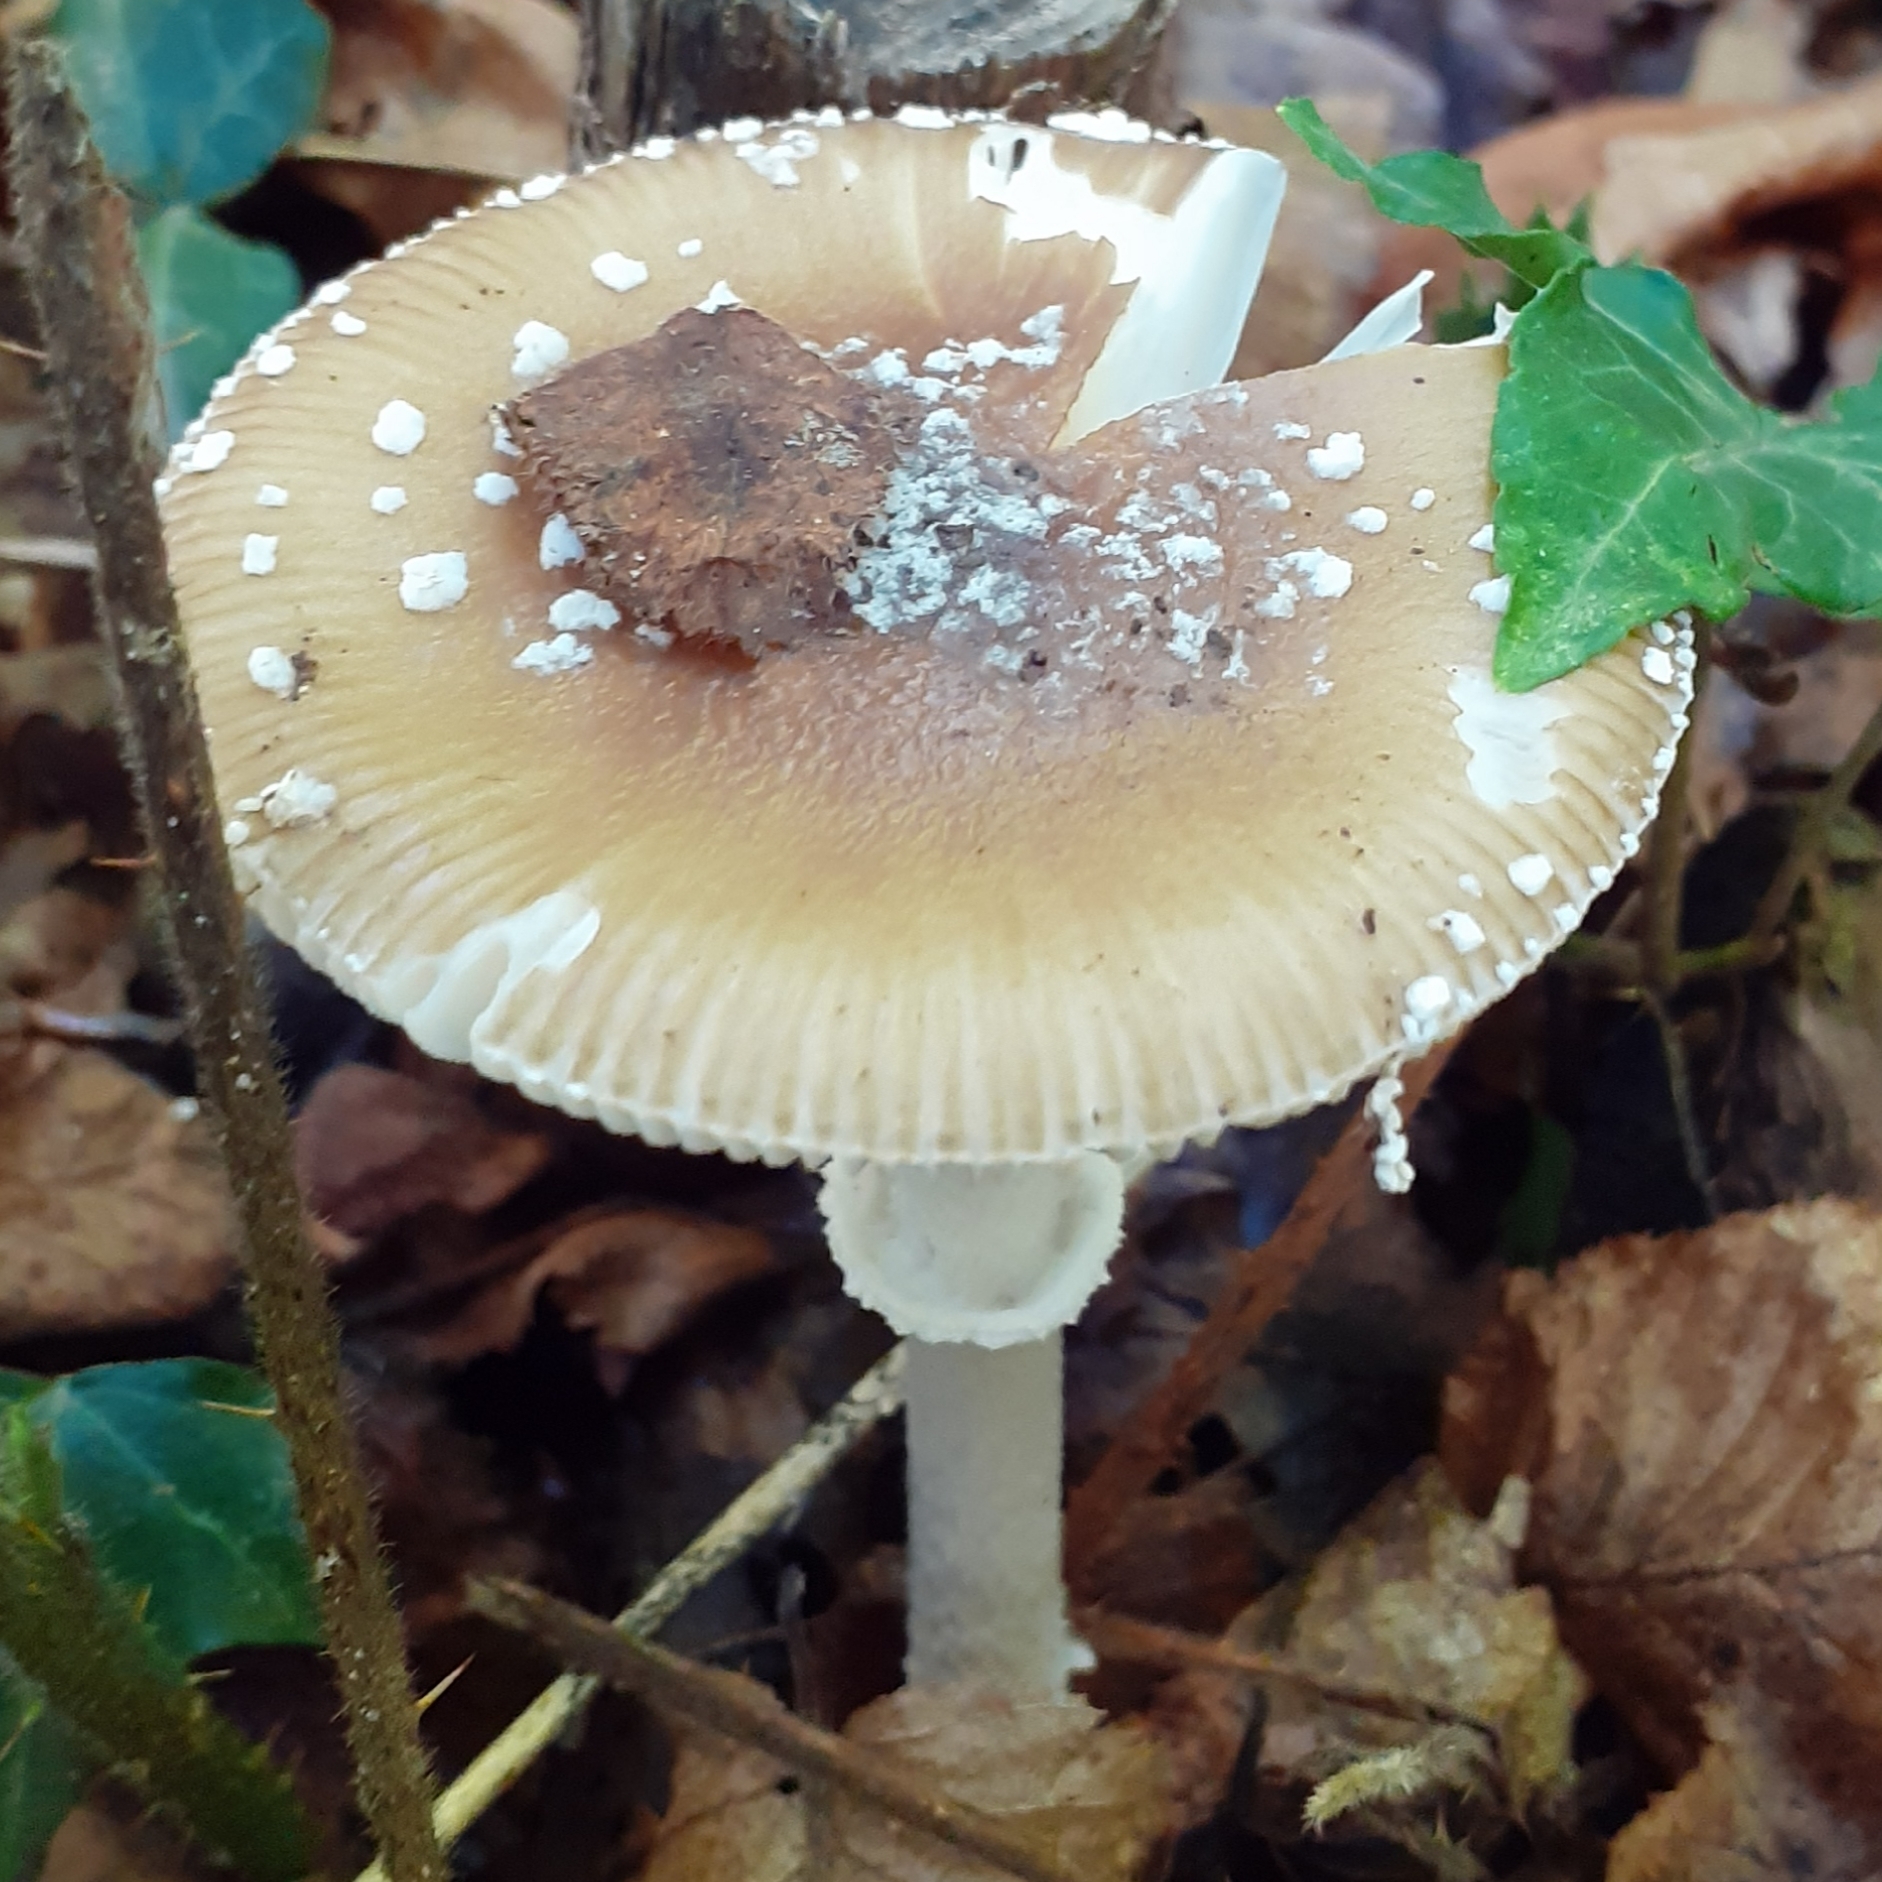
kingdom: Fungi
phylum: Basidiomycota
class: Agaricomycetes
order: Agaricales
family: Amanitaceae
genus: Amanita
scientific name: Amanita pantherina
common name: Panthercap
